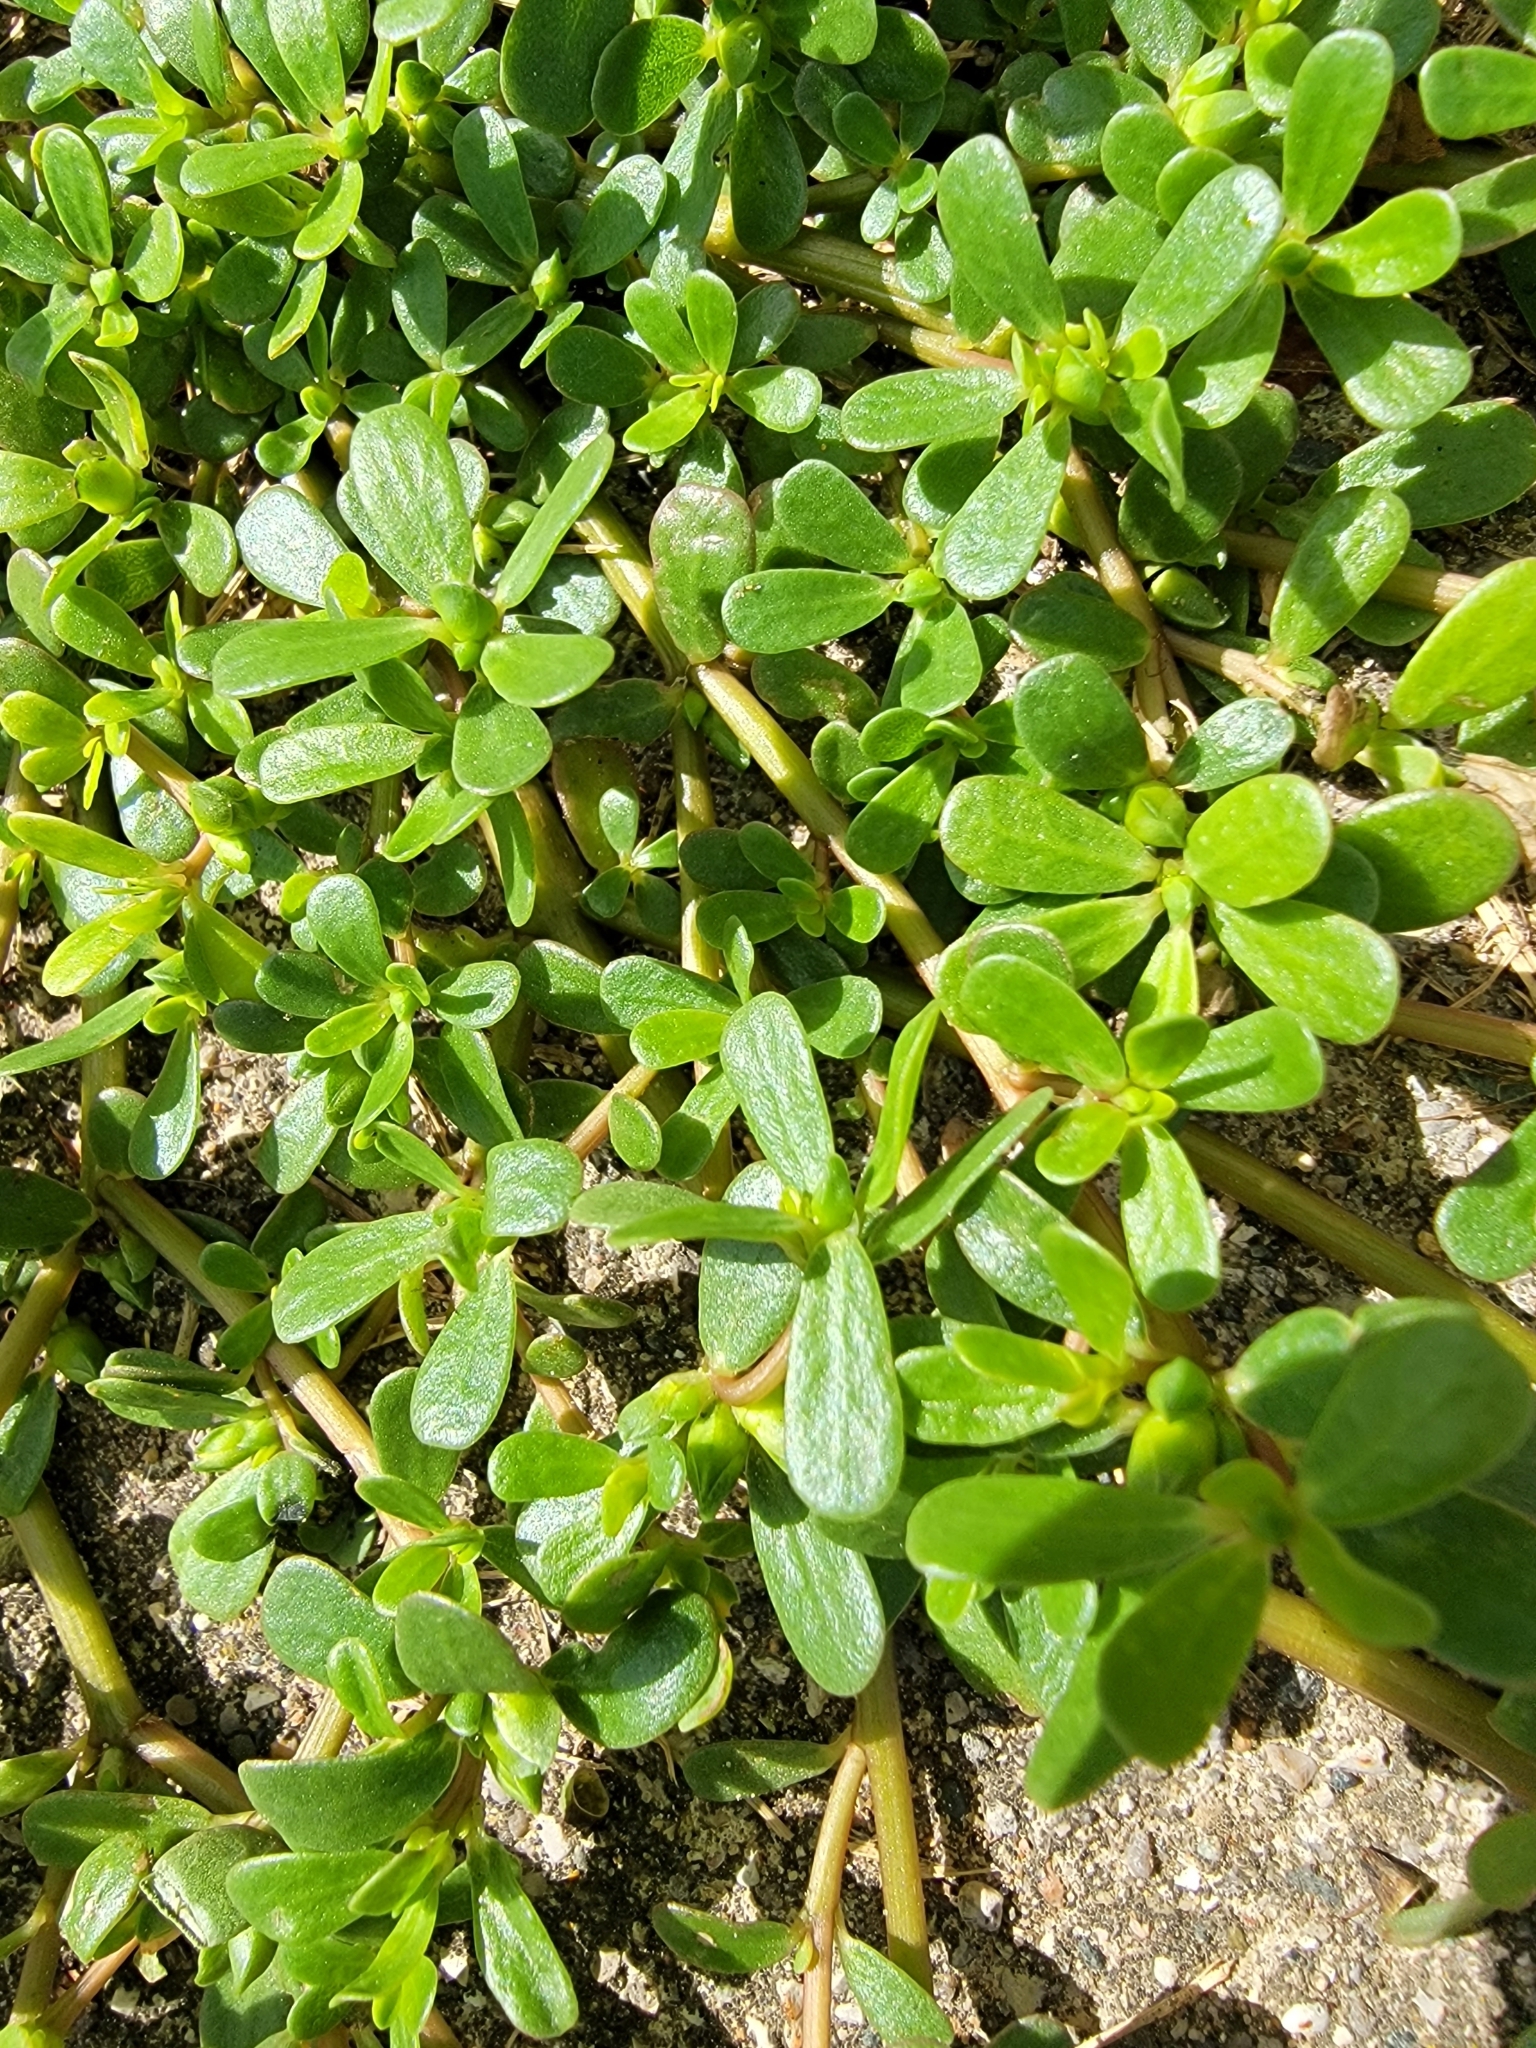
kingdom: Plantae
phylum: Tracheophyta
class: Magnoliopsida
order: Caryophyllales
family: Portulacaceae
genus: Portulaca
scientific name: Portulaca oleracea
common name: Common purslane
